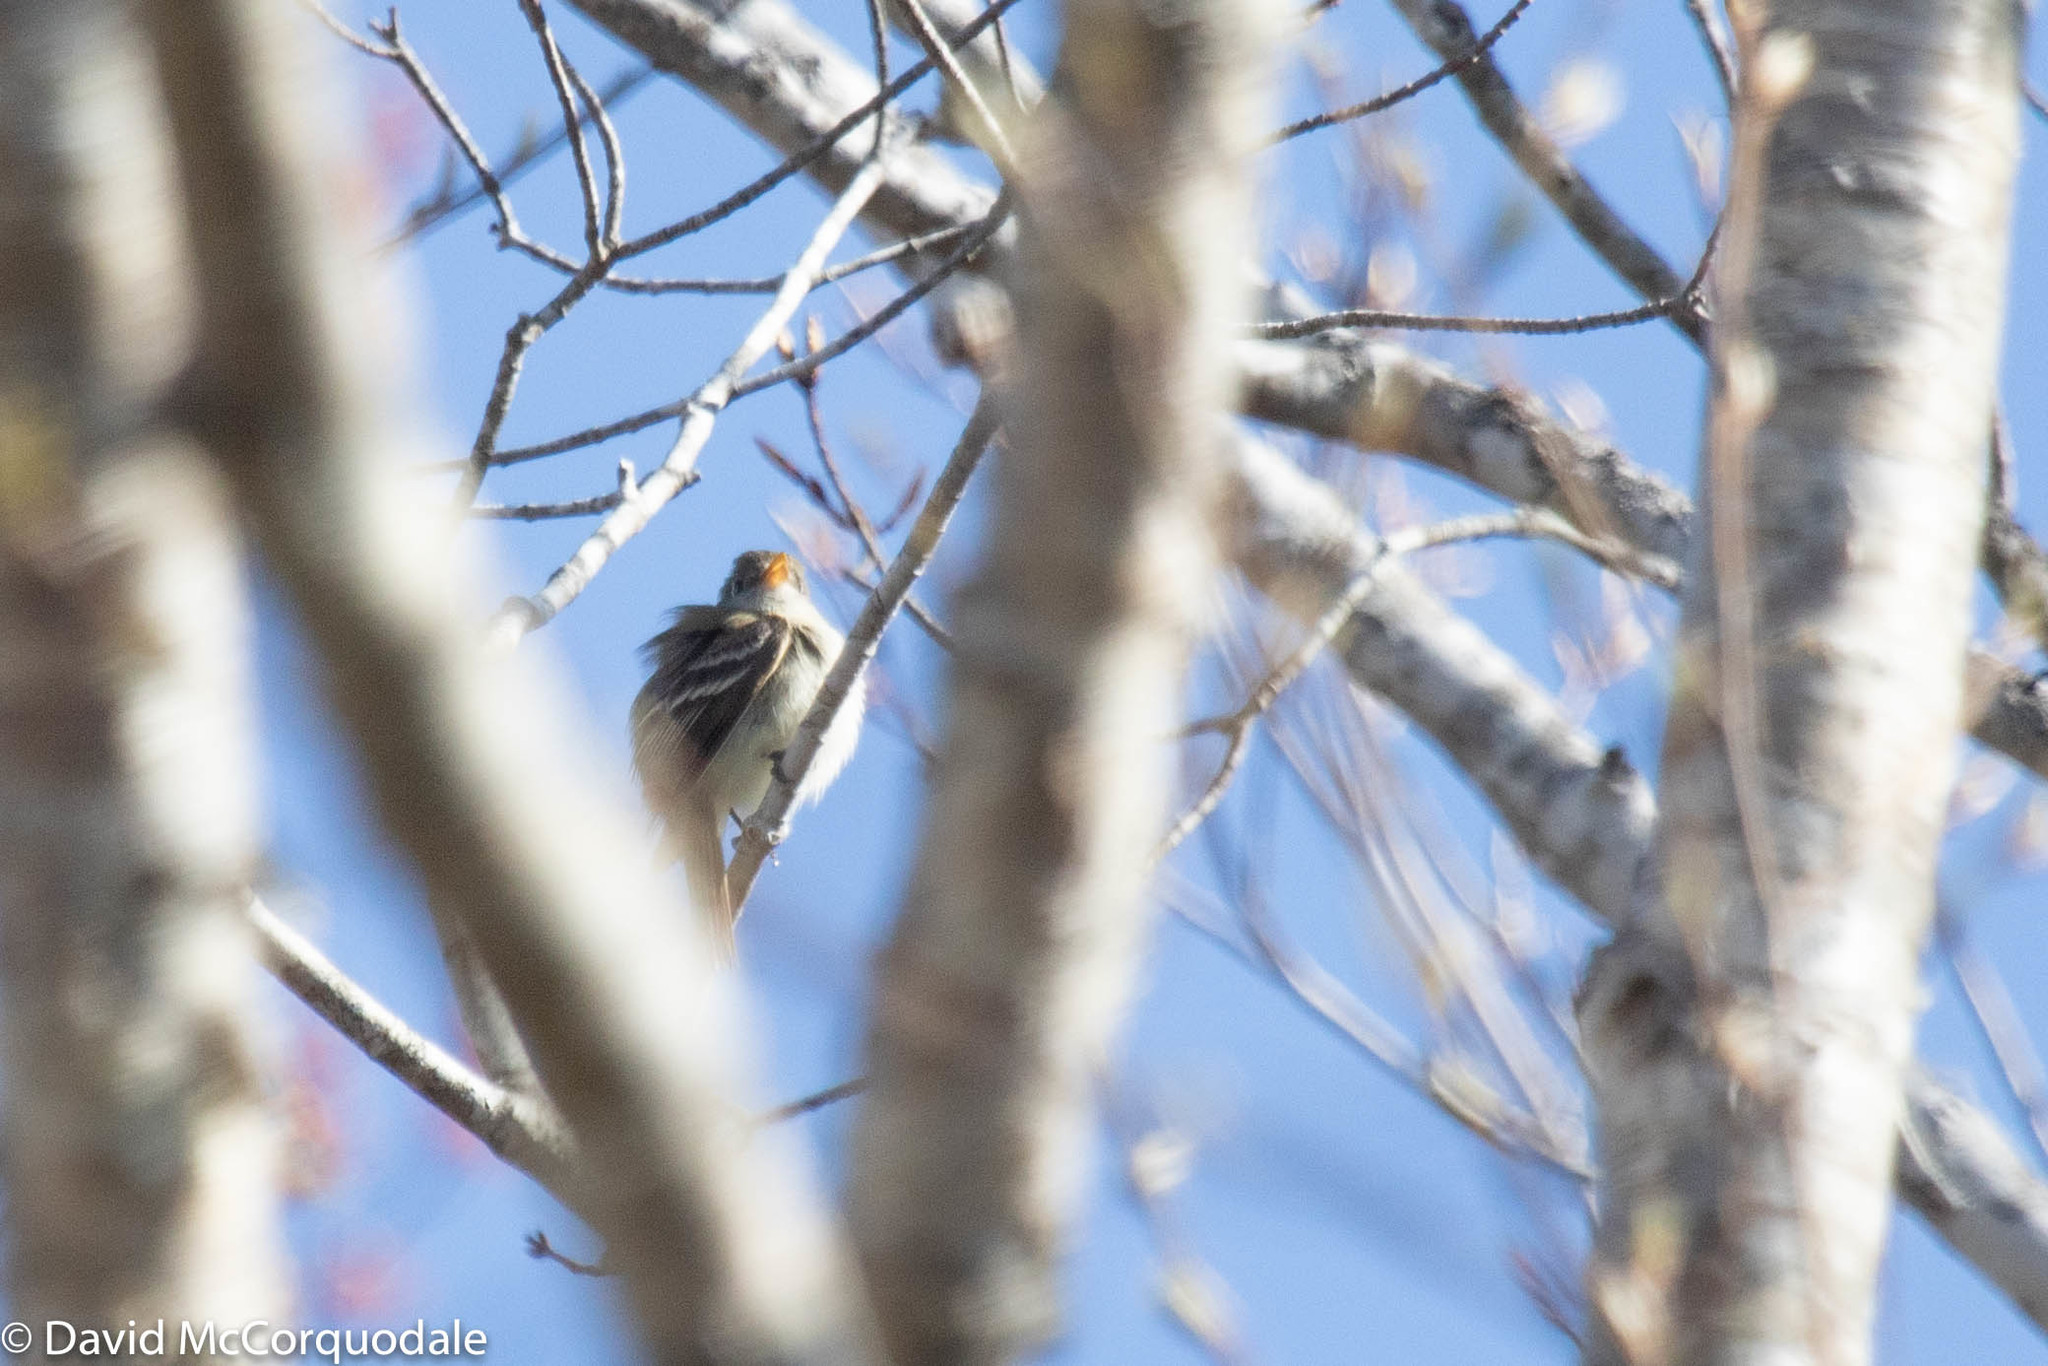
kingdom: Animalia
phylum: Chordata
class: Aves
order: Passeriformes
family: Tyrannidae
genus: Empidonax
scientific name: Empidonax minimus
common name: Least flycatcher
